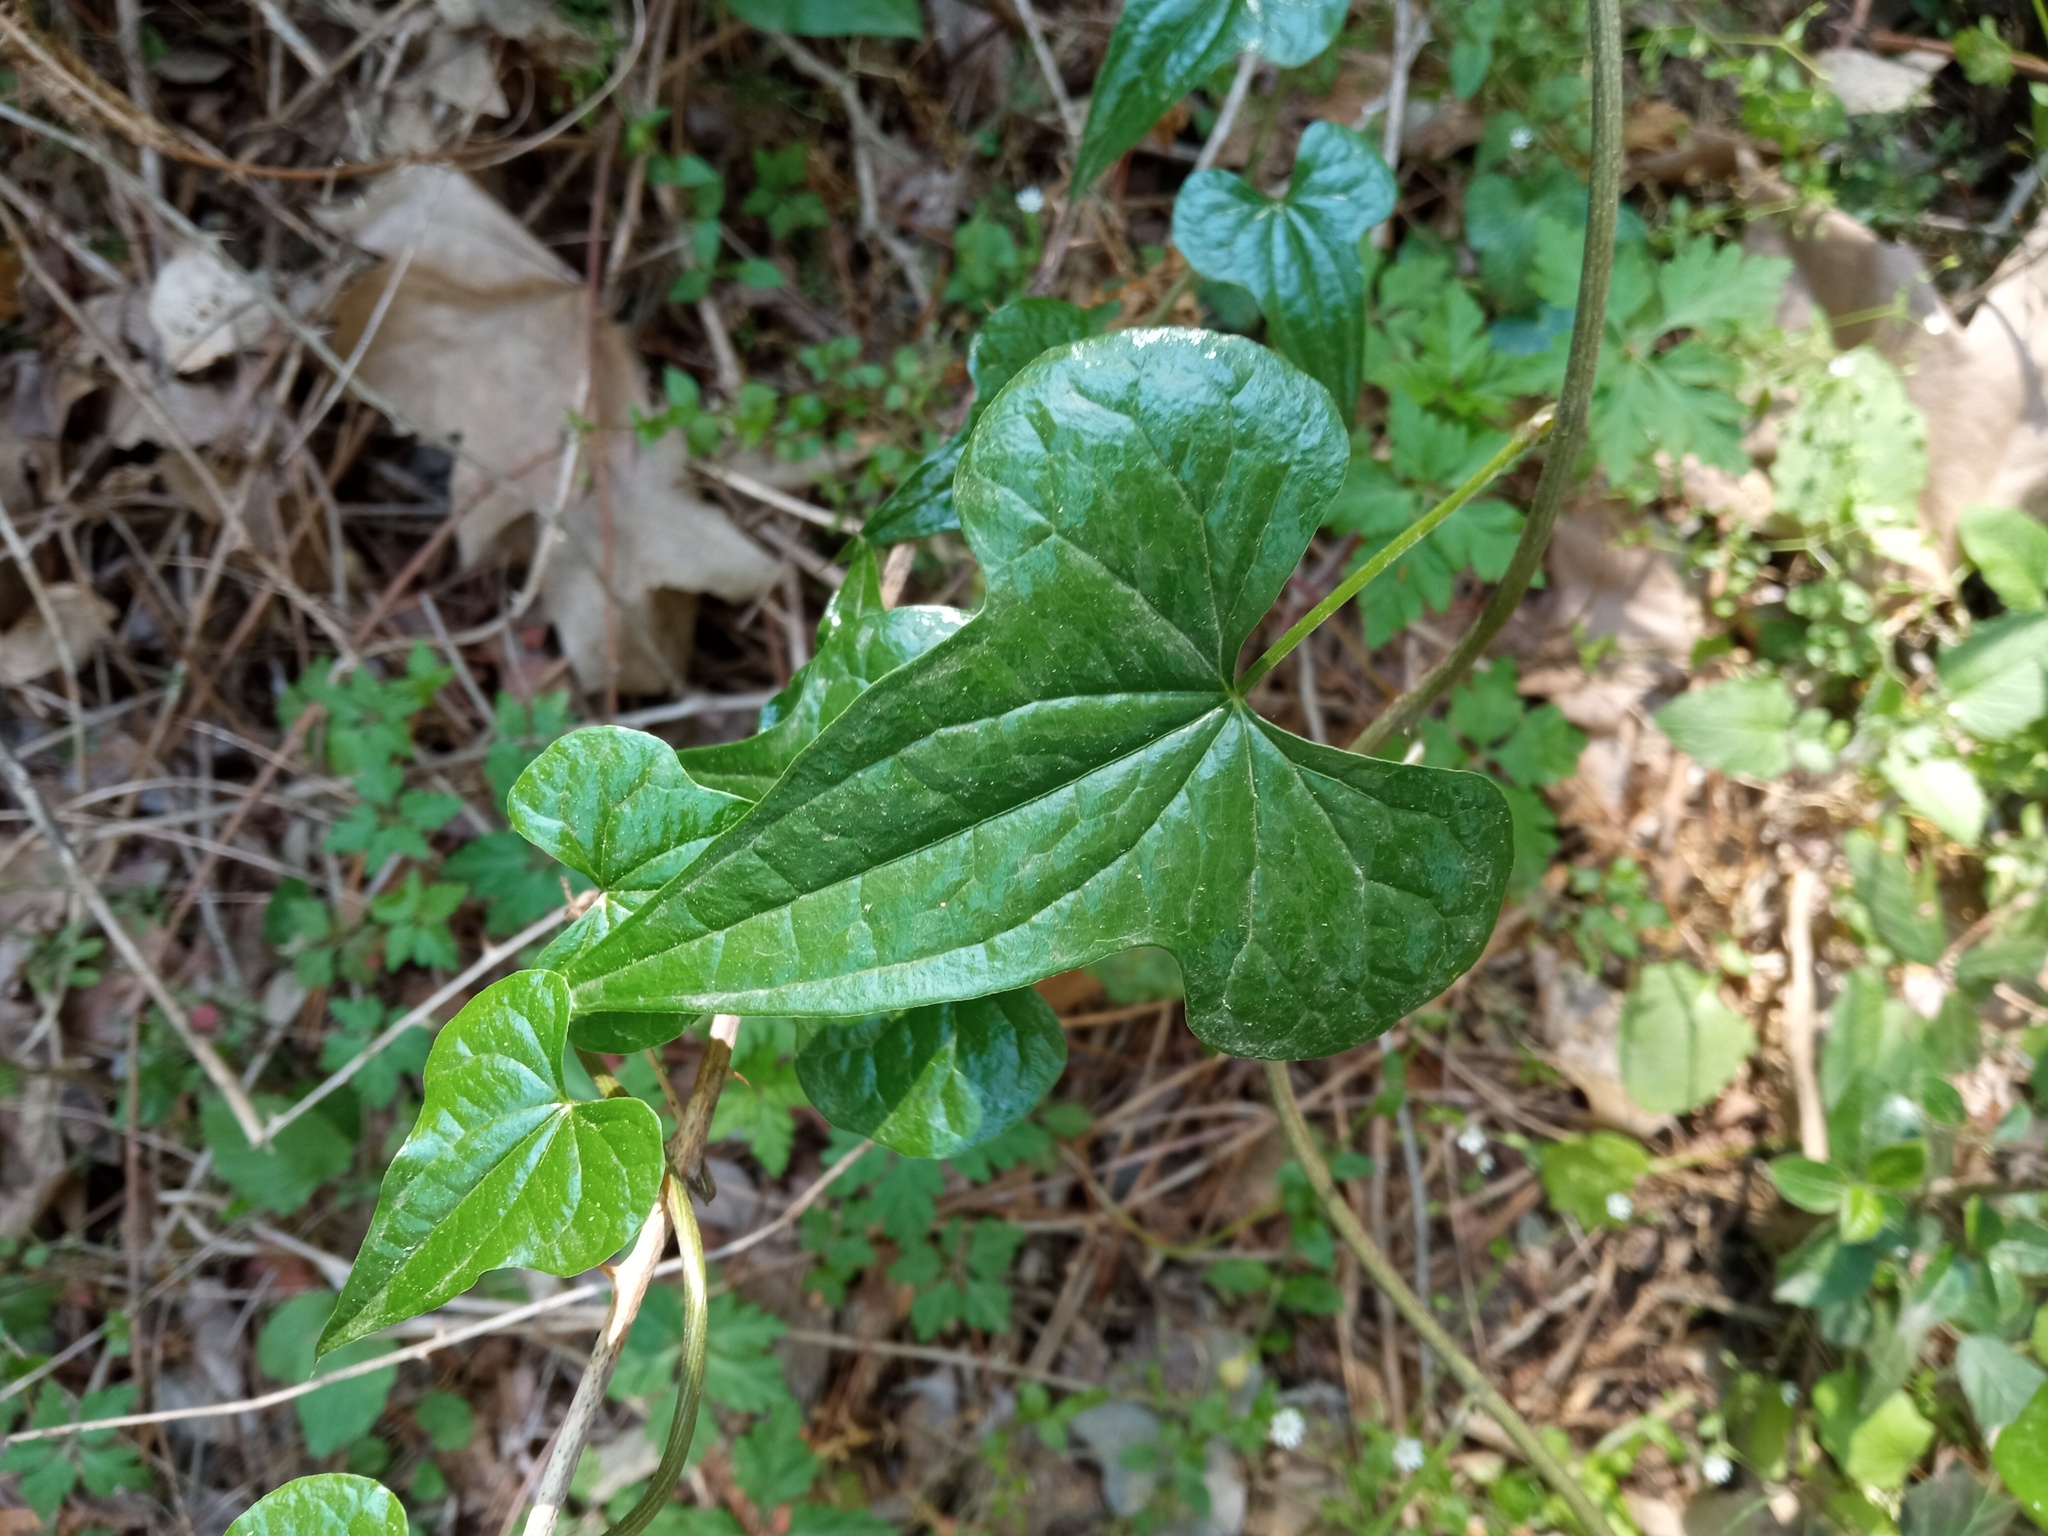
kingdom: Plantae
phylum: Tracheophyta
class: Liliopsida
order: Dioscoreales
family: Dioscoreaceae
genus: Dioscorea
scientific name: Dioscorea communis
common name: Black-bindweed
